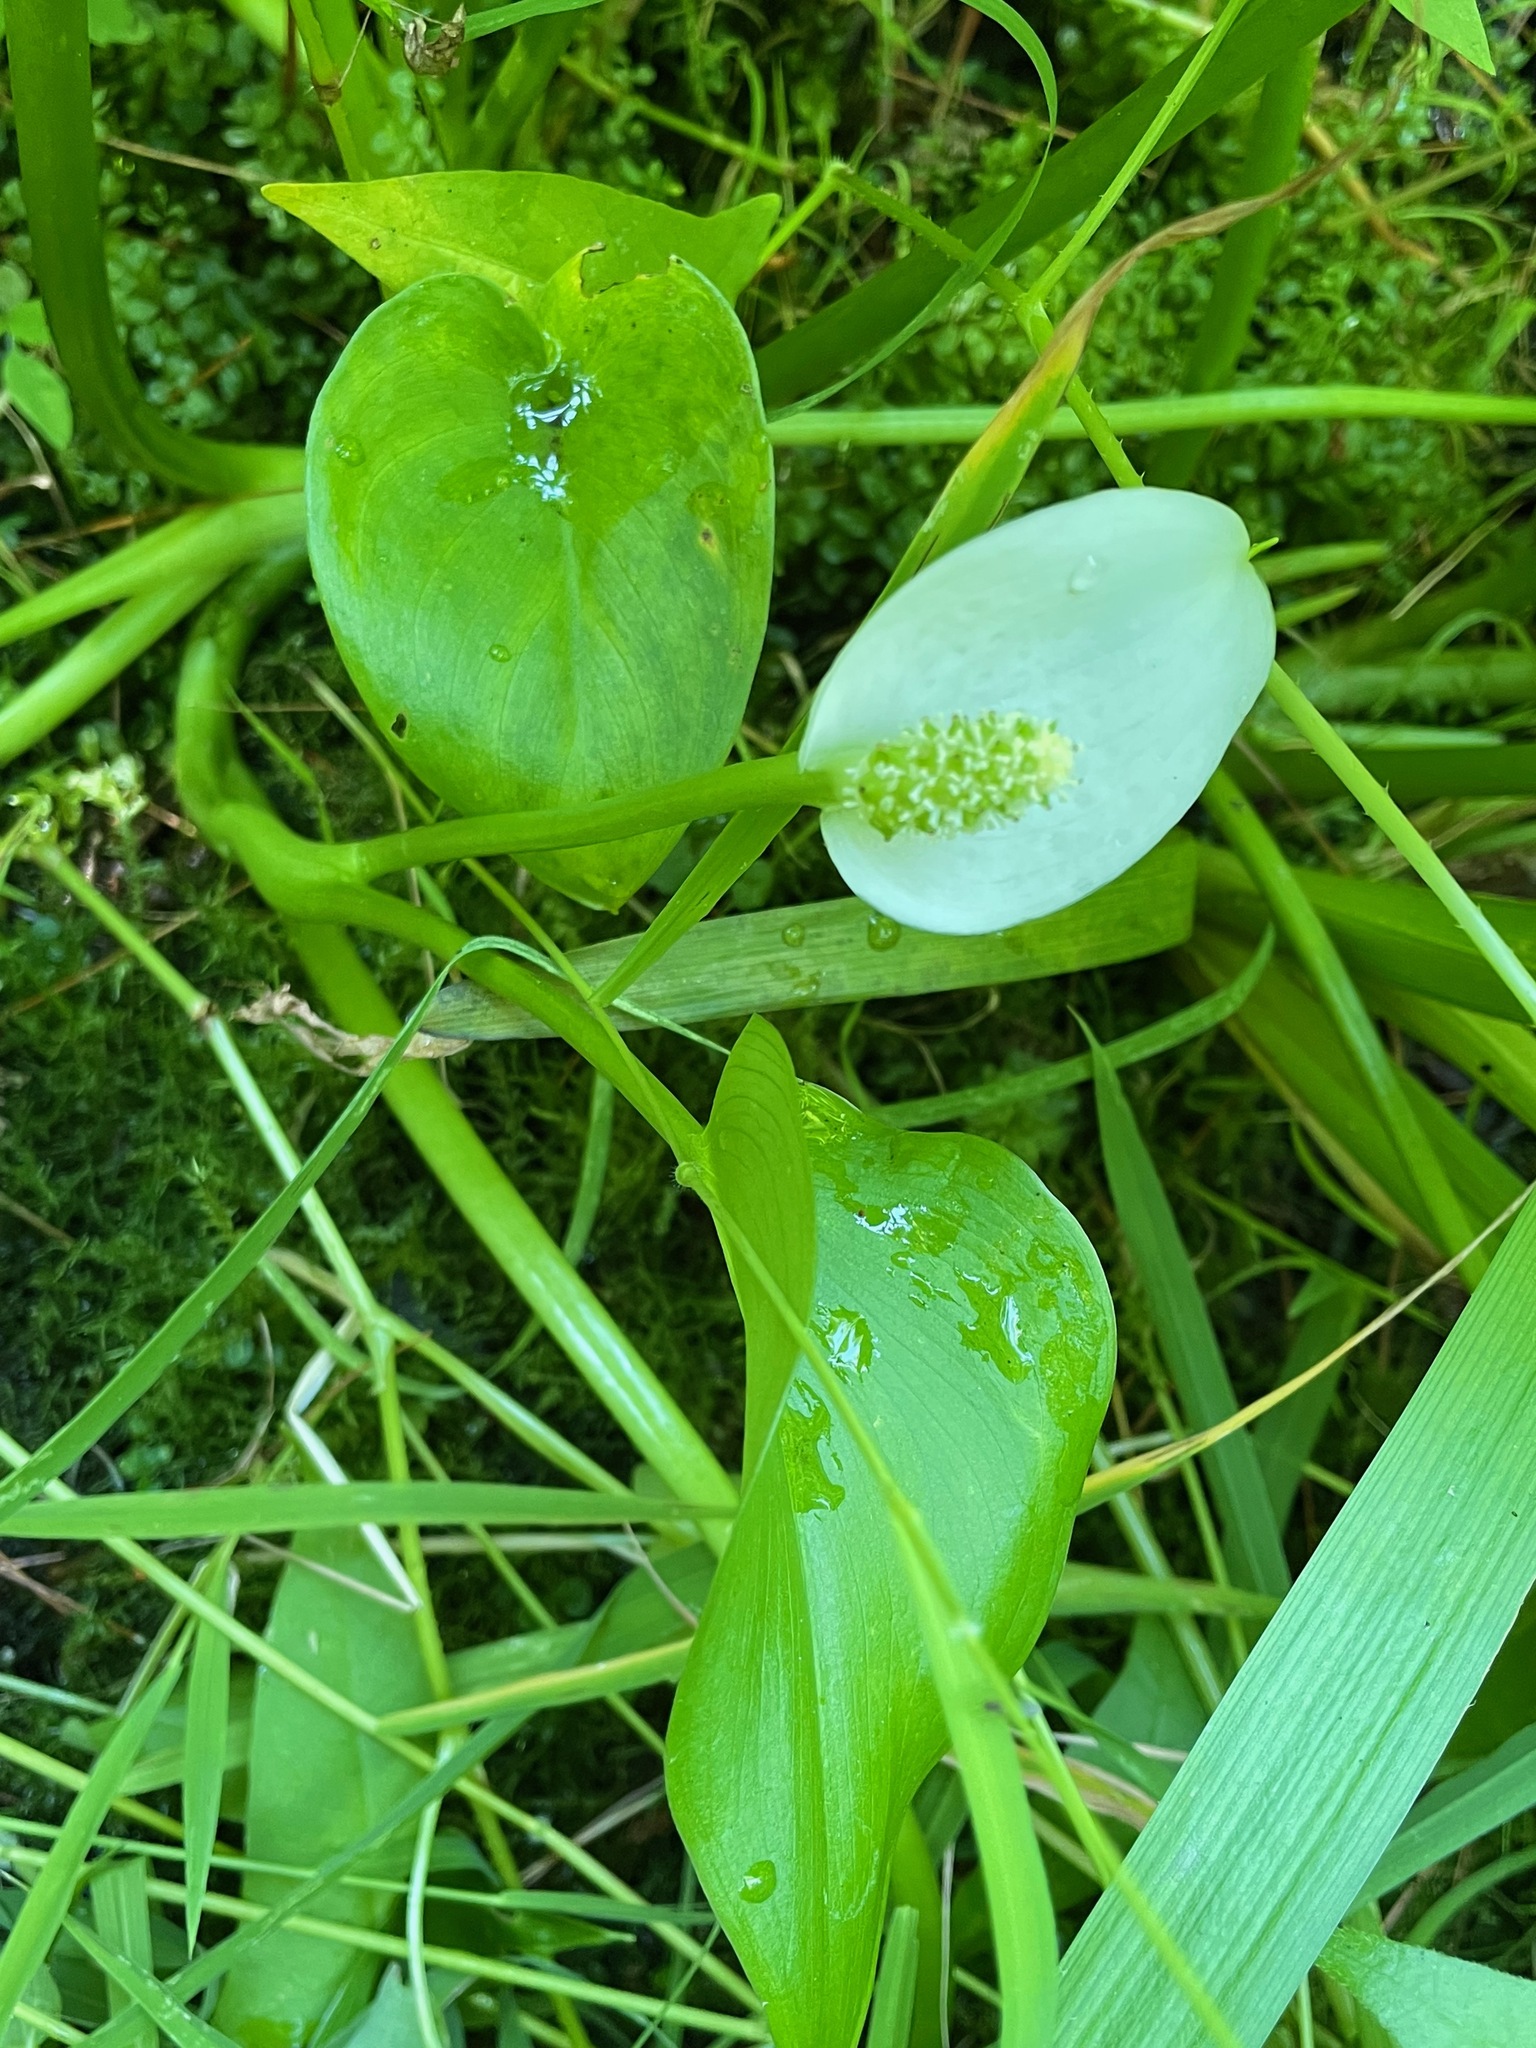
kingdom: Plantae
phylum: Tracheophyta
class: Liliopsida
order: Alismatales
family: Araceae
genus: Calla
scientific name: Calla palustris
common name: Bog arum
